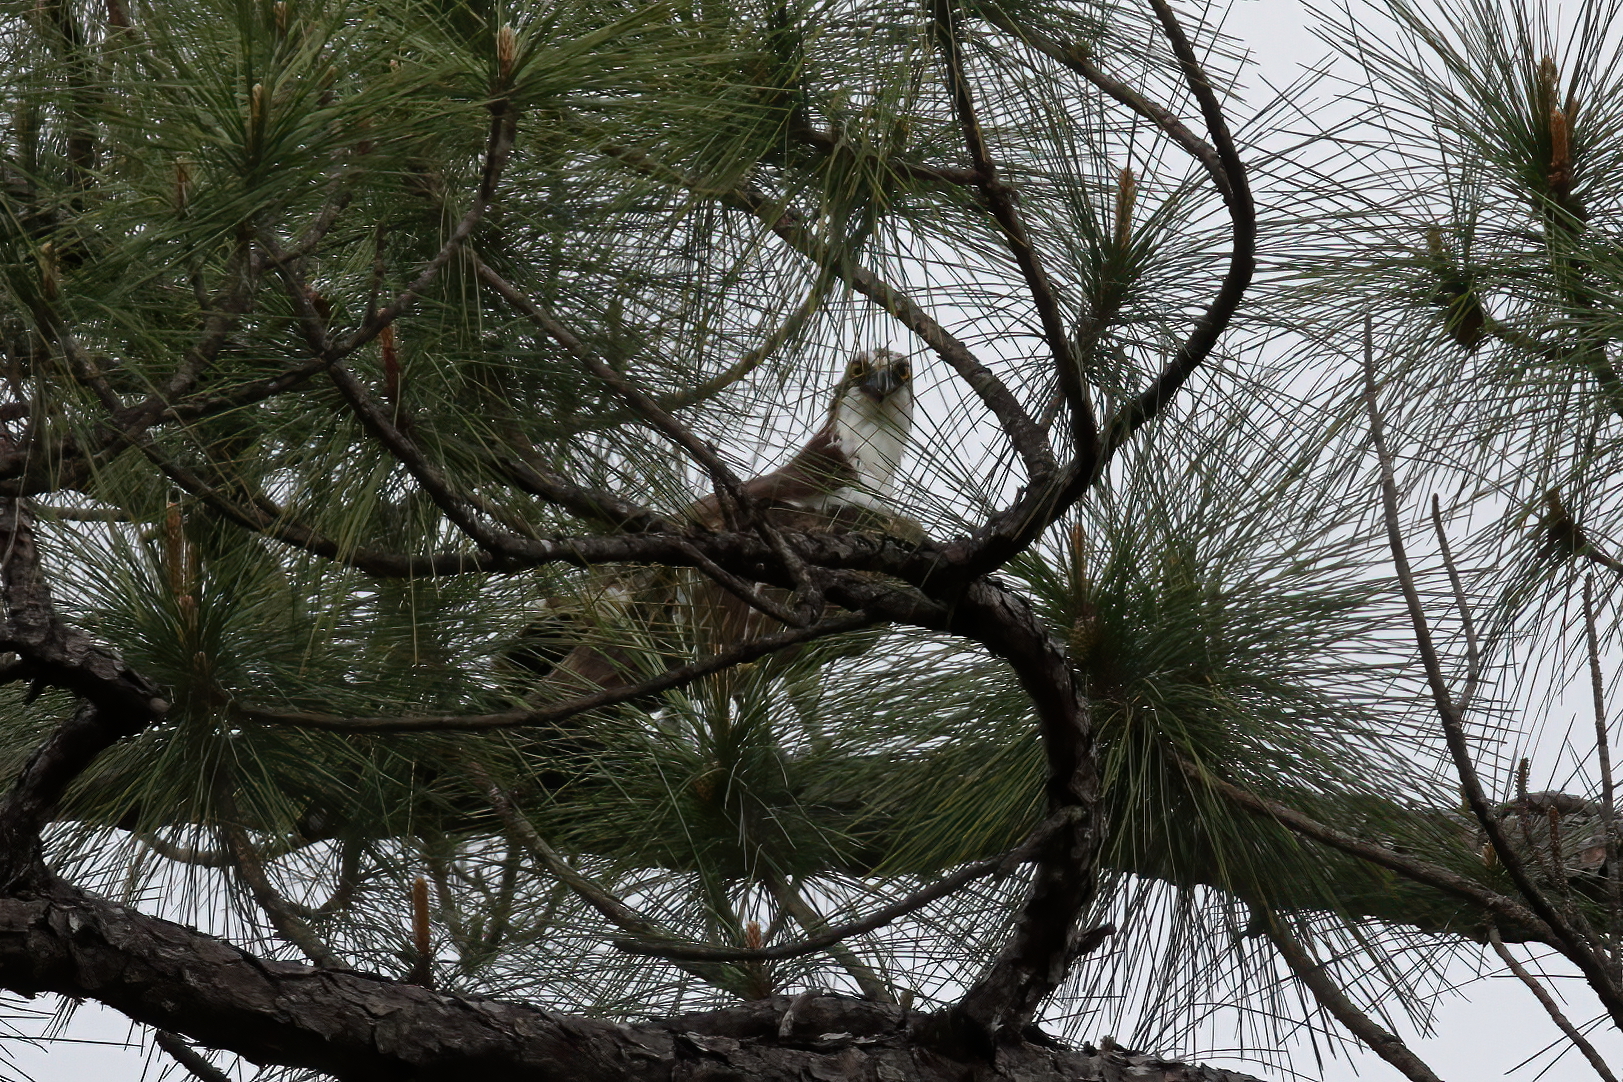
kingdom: Animalia
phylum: Chordata
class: Aves
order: Accipitriformes
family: Pandionidae
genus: Pandion
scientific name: Pandion haliaetus
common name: Osprey
